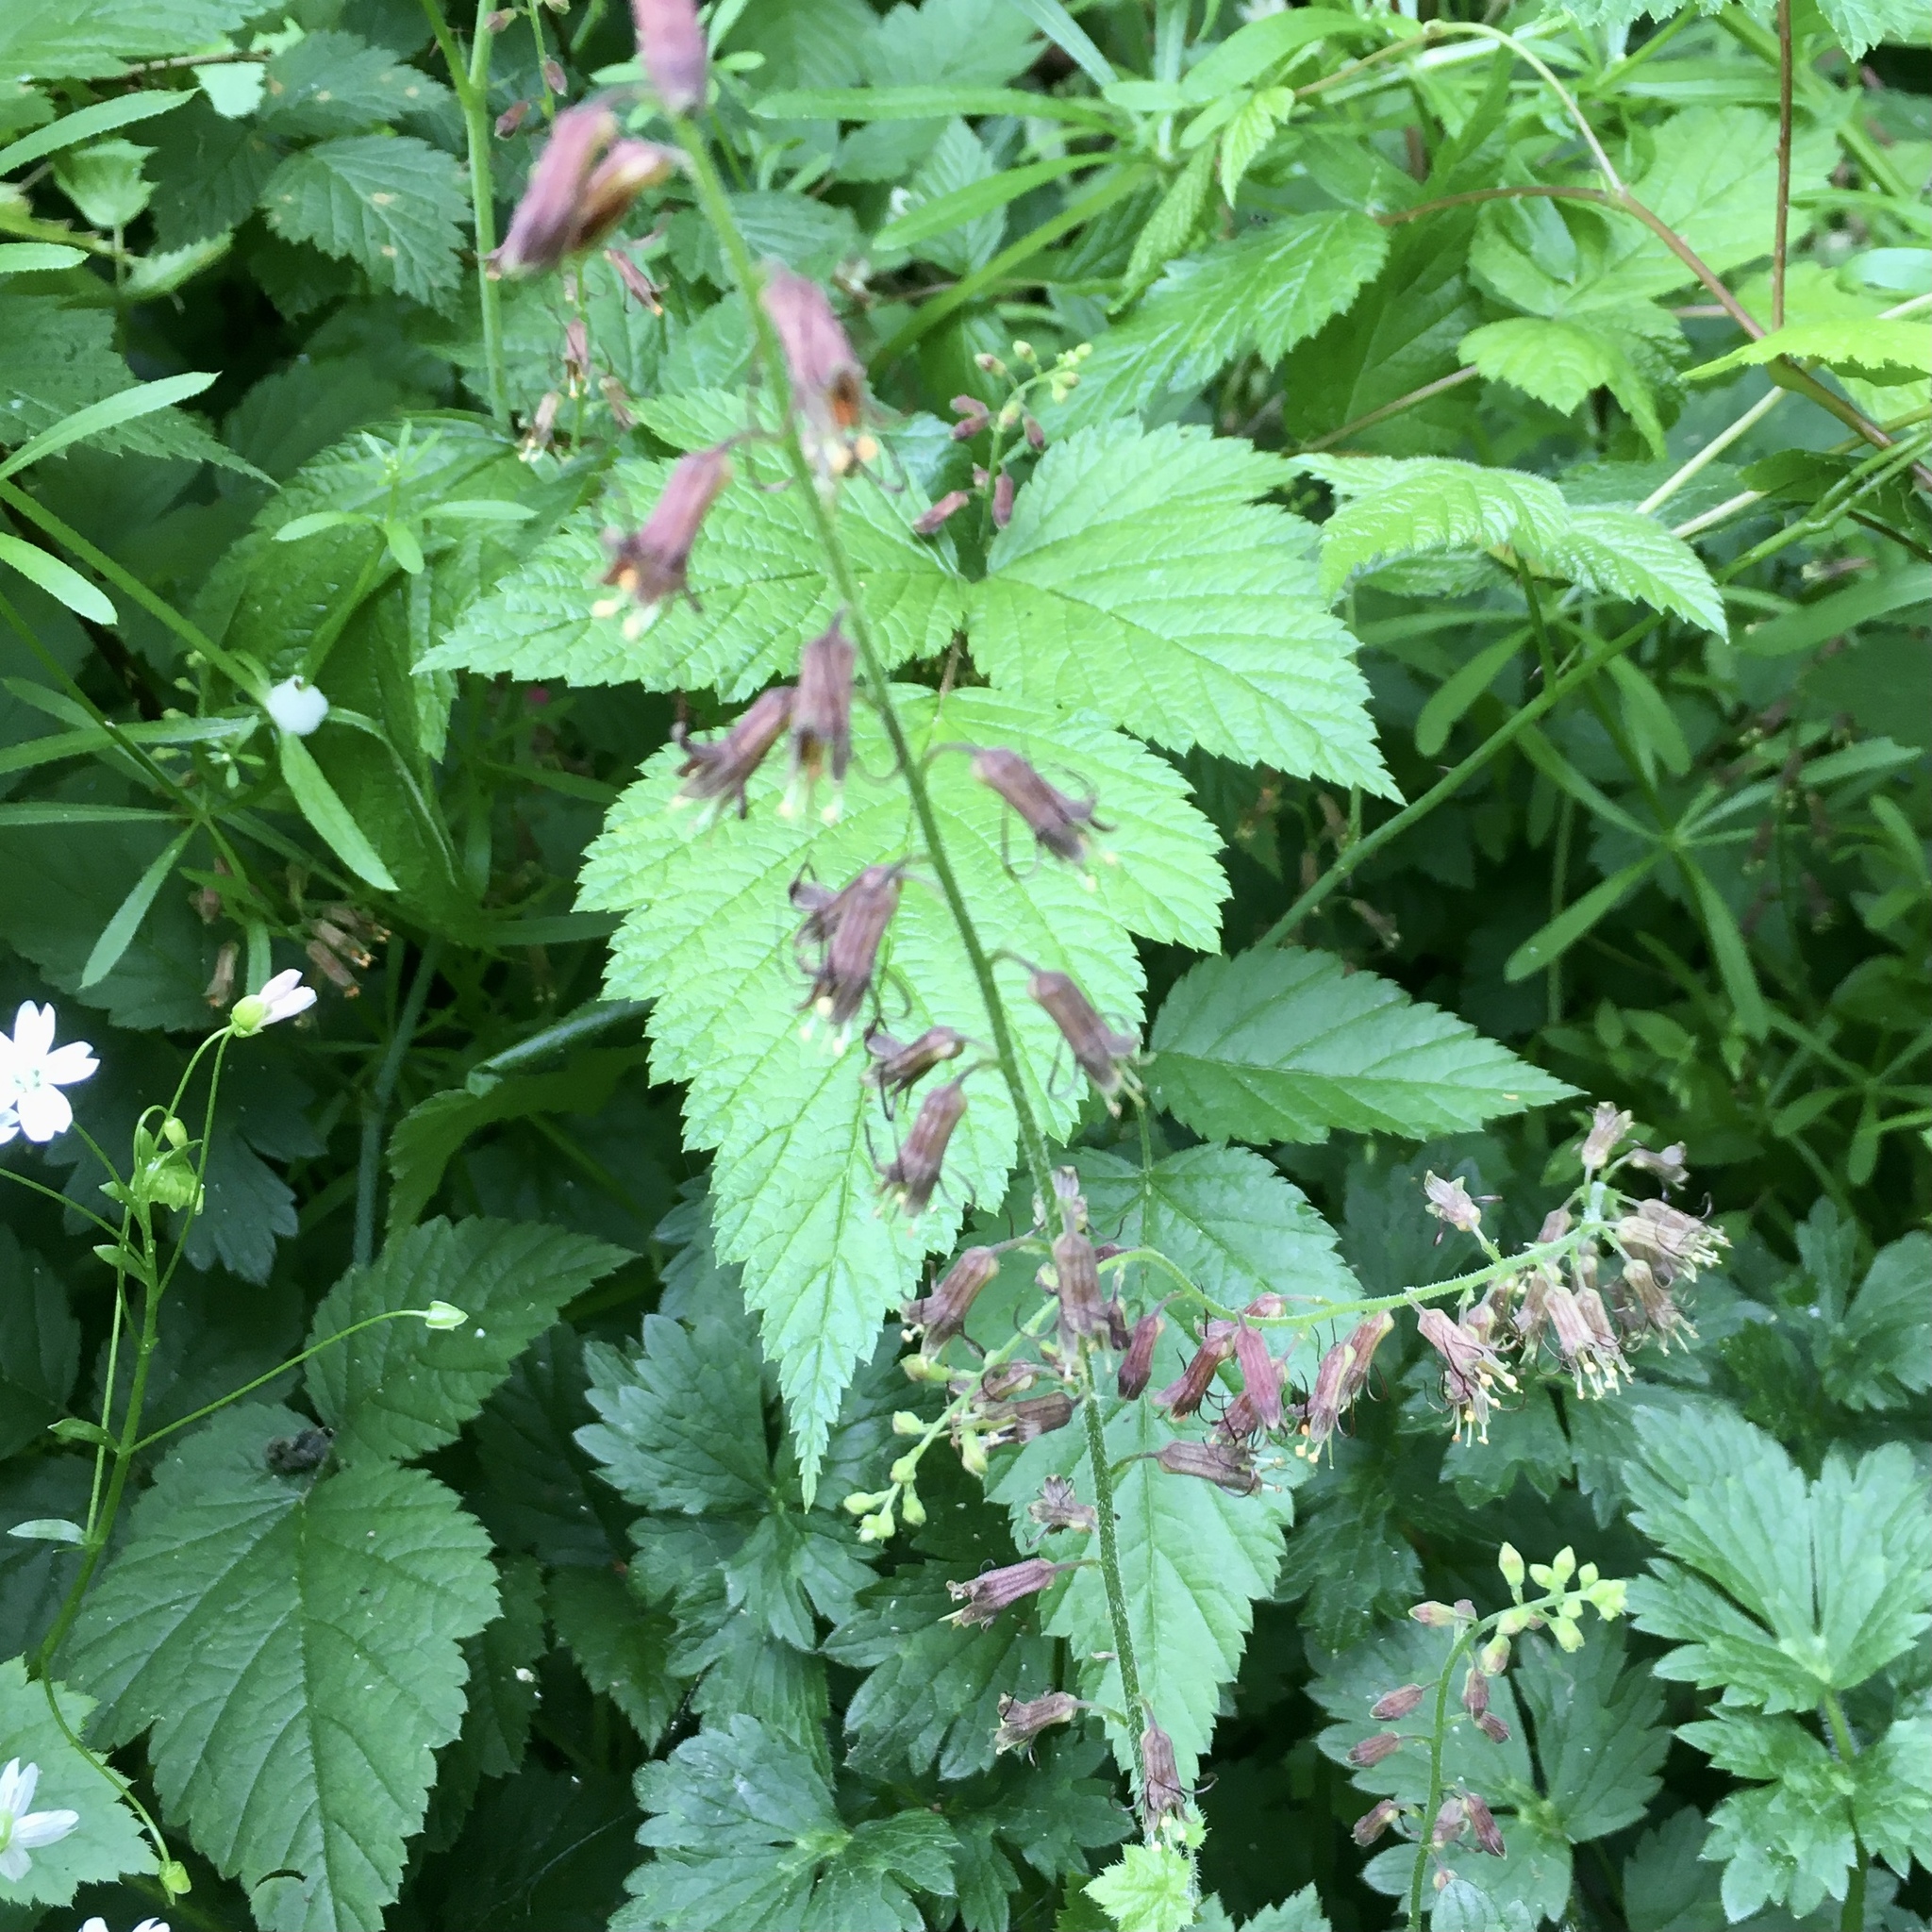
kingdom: Plantae
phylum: Tracheophyta
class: Magnoliopsida
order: Saxifragales
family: Saxifragaceae
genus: Tolmiea
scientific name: Tolmiea menziesii
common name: Pick-a-back-plant
